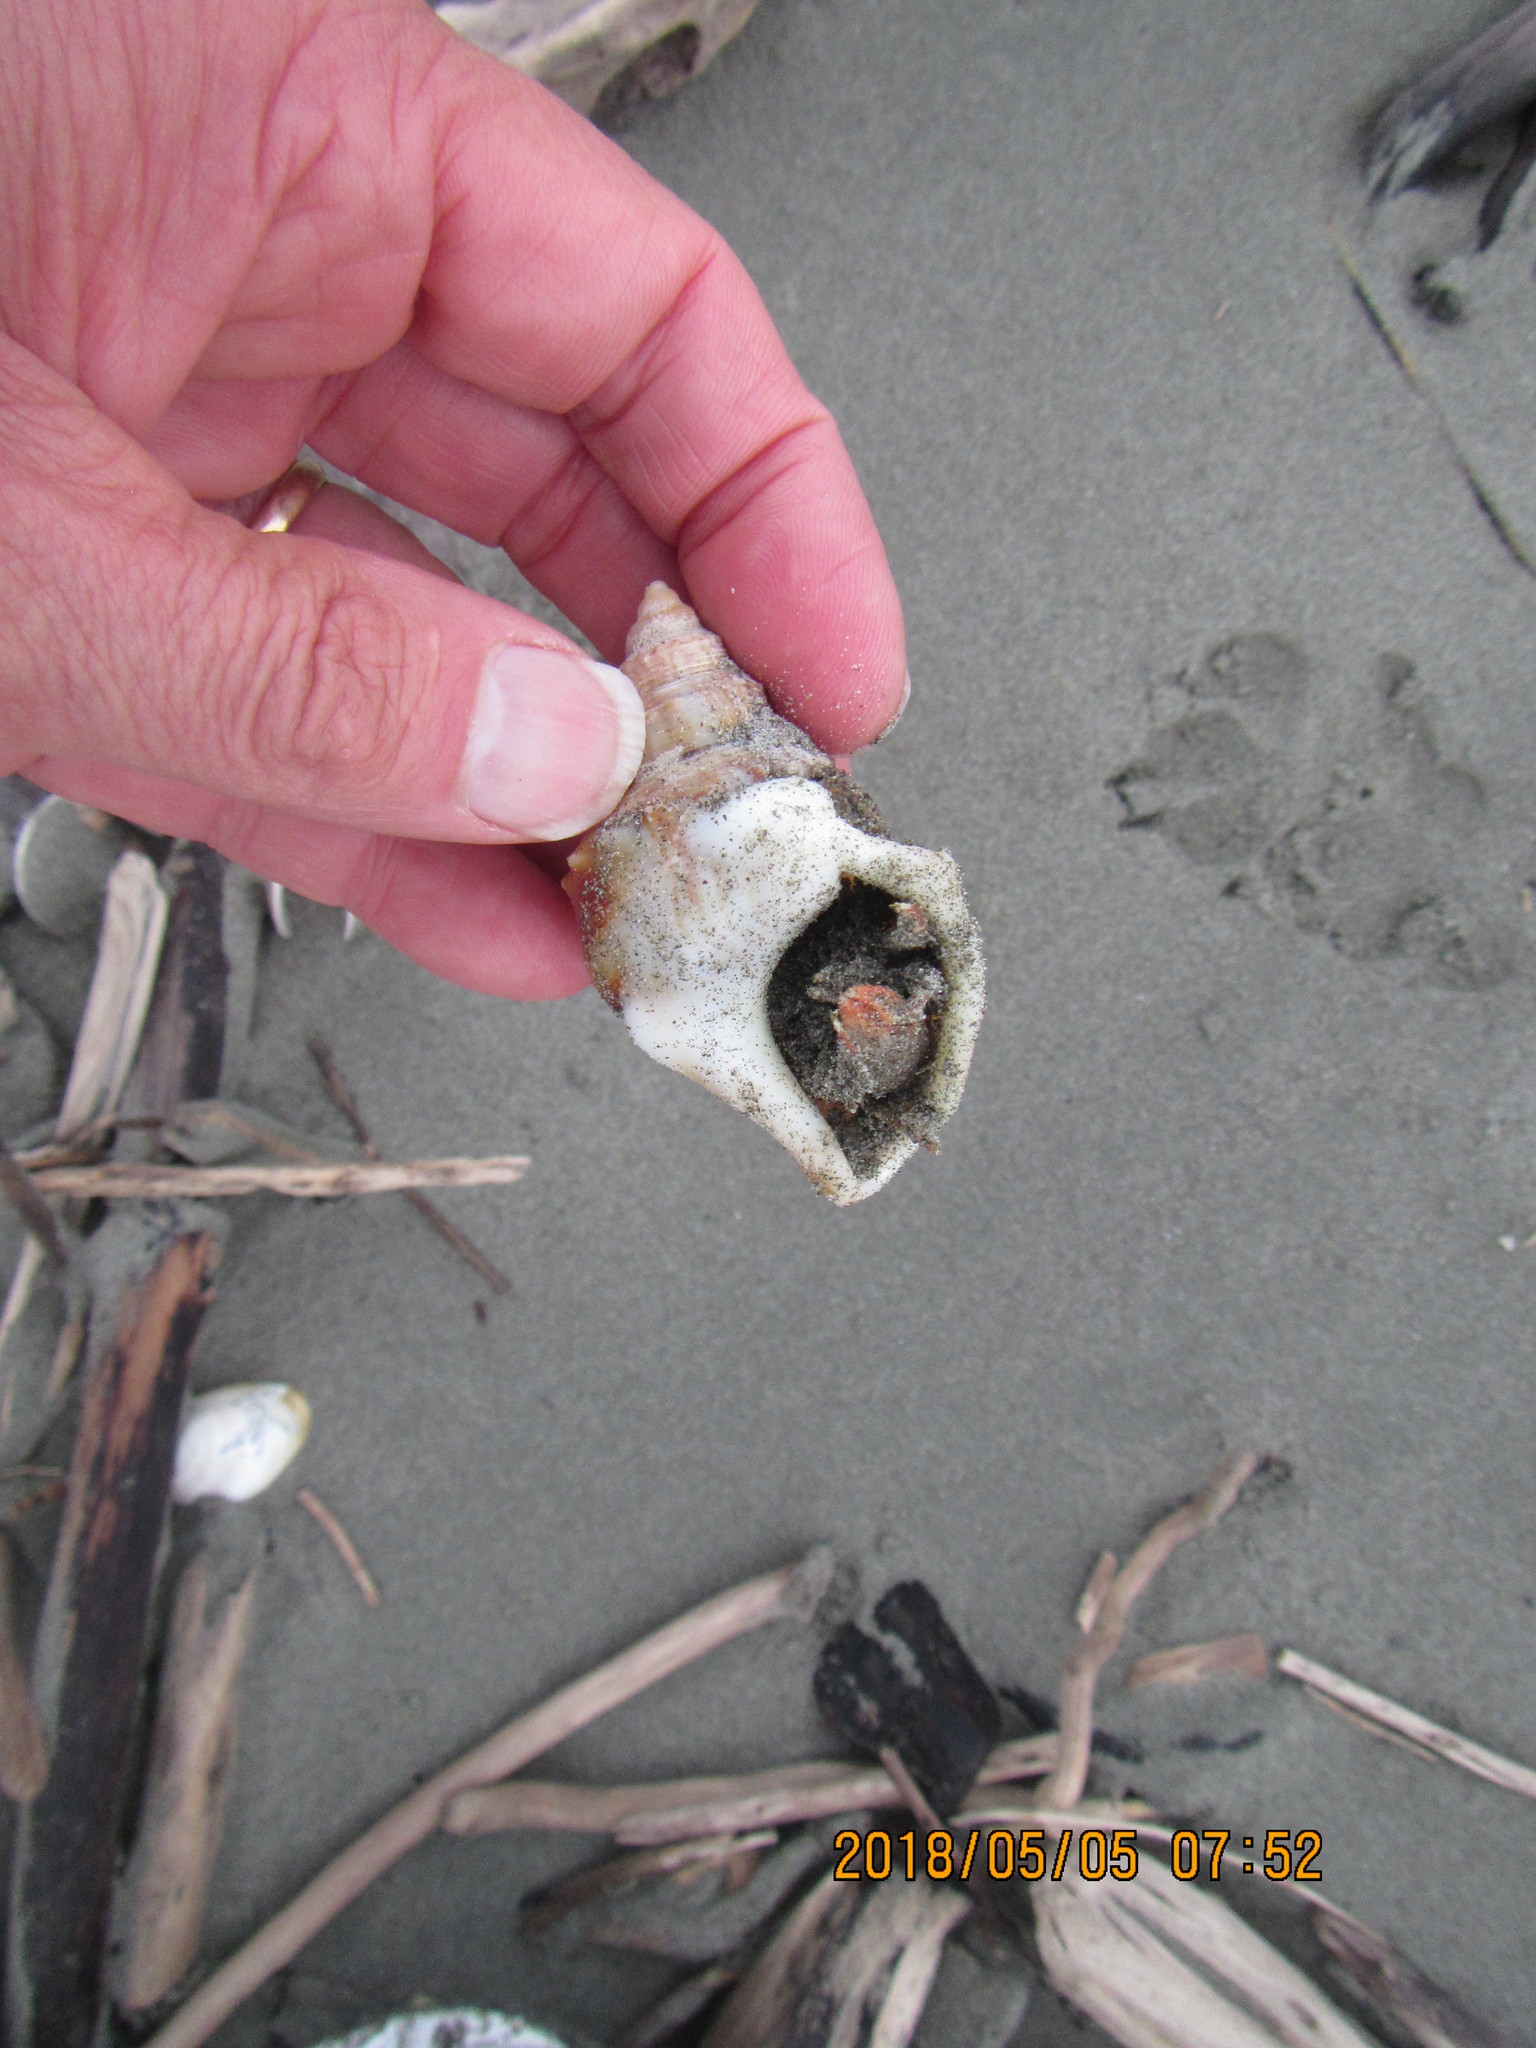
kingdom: Animalia
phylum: Mollusca
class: Gastropoda
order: Littorinimorpha
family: Struthiolariidae
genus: Struthiolaria
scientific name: Struthiolaria papulosa
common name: Large ostrich foot
